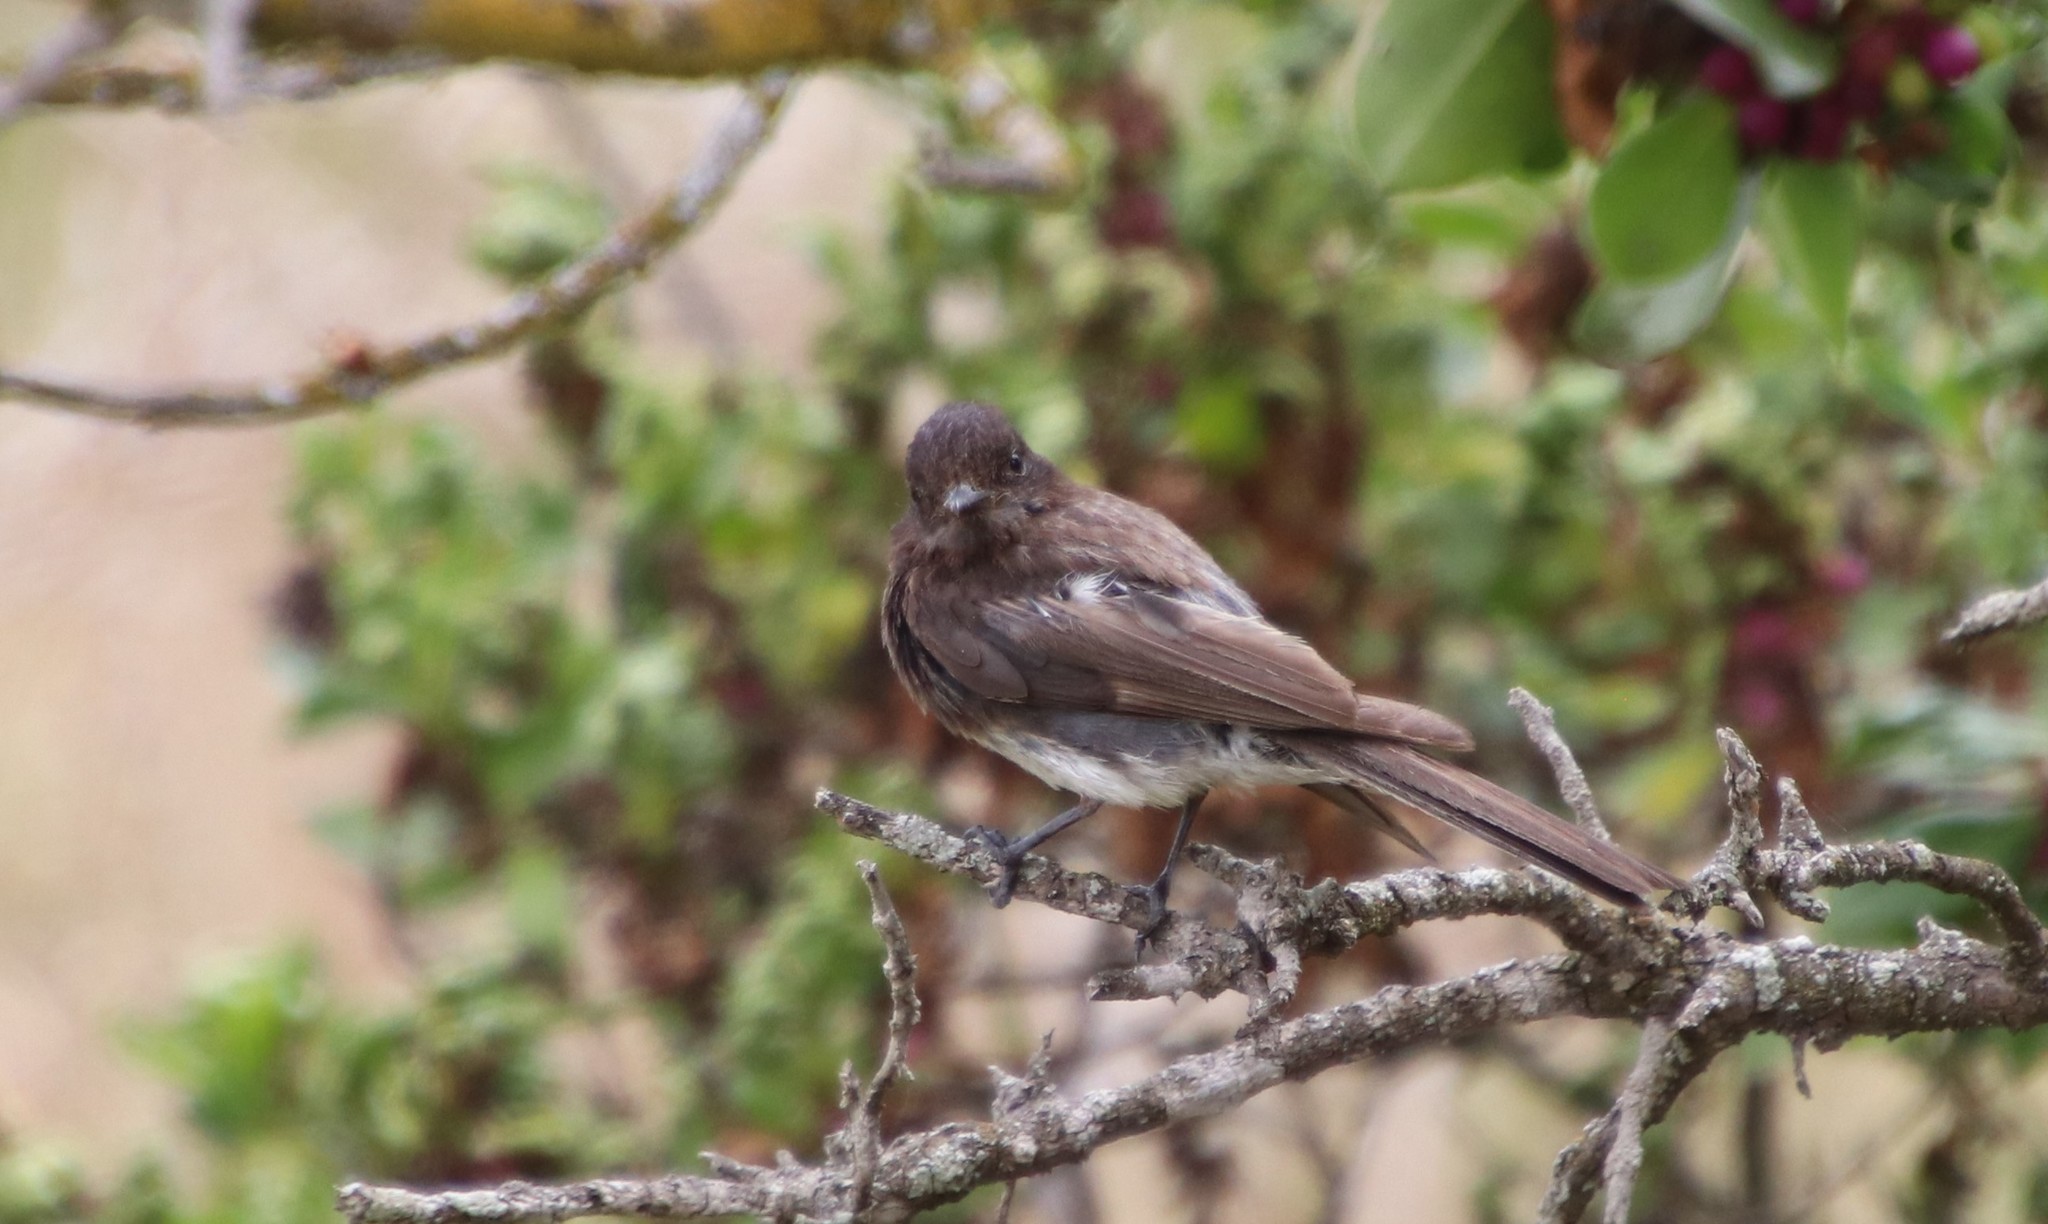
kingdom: Animalia
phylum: Chordata
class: Aves
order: Passeriformes
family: Tyrannidae
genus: Sayornis
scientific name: Sayornis nigricans
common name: Black phoebe
